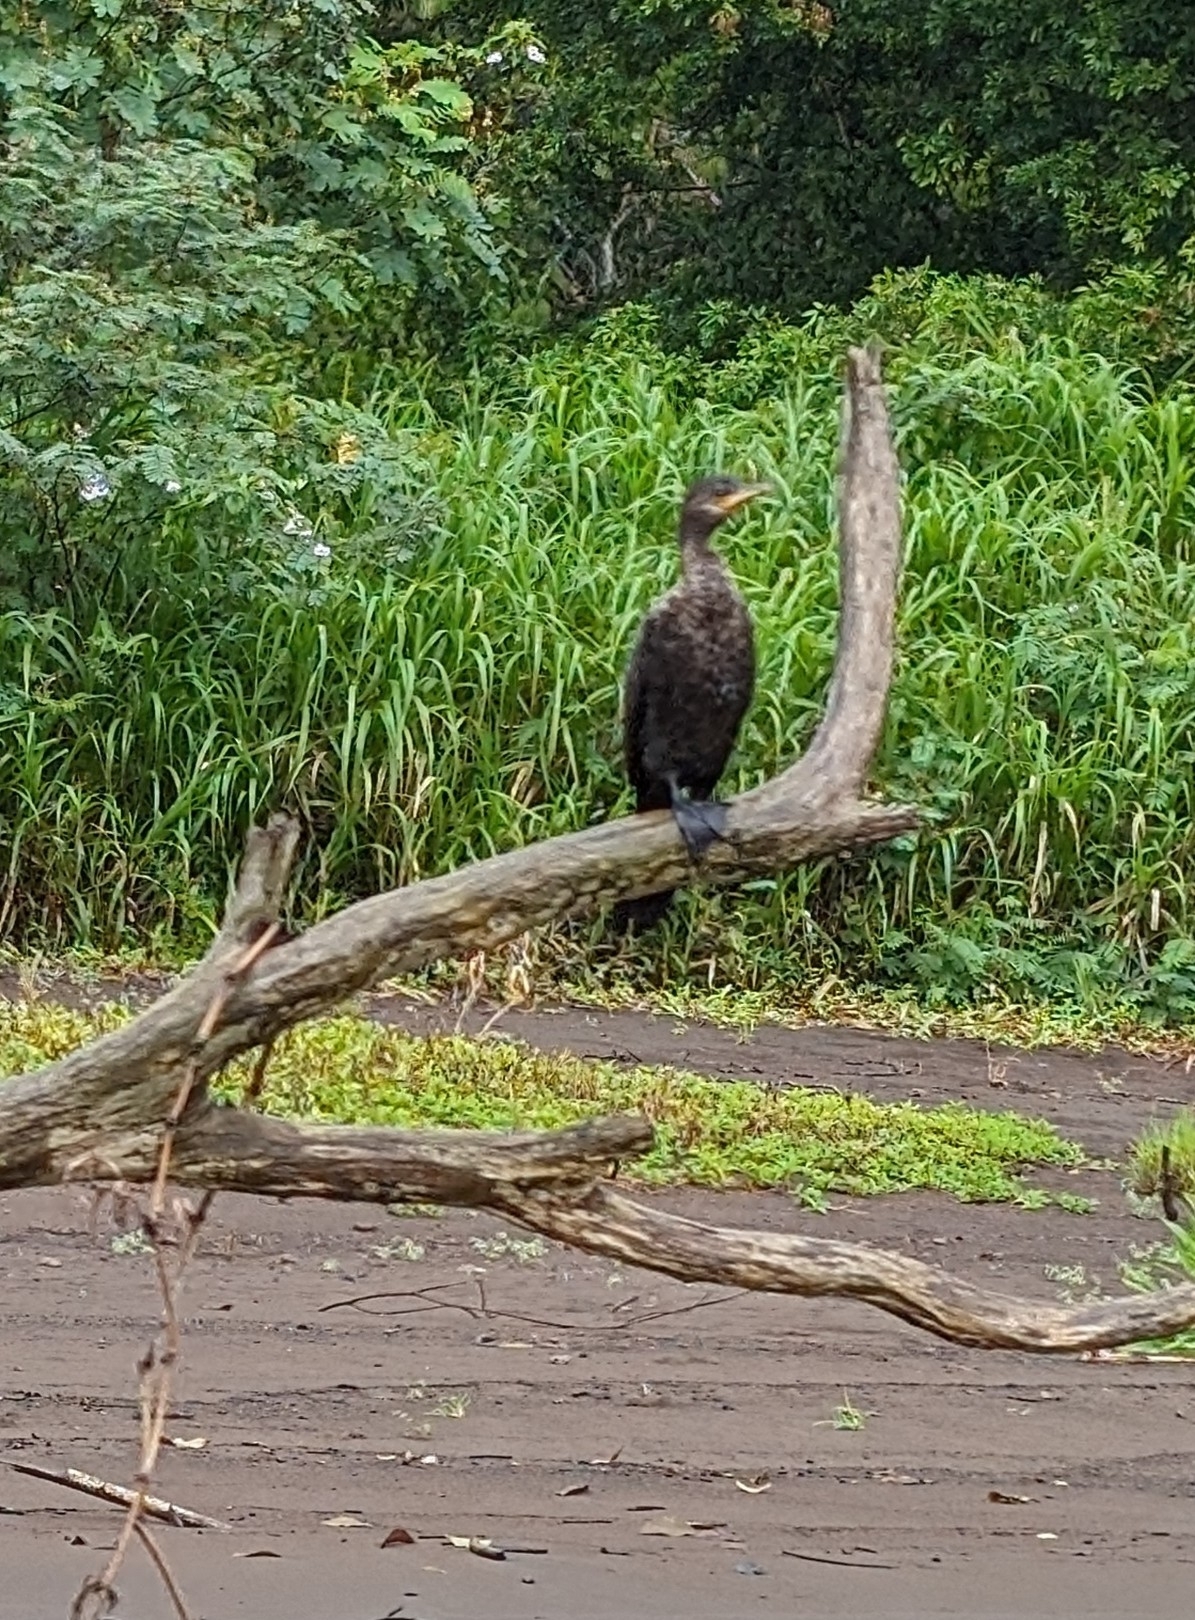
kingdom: Animalia
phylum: Chordata
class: Aves
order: Suliformes
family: Phalacrocoracidae
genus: Phalacrocorax
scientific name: Phalacrocorax brasilianus
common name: Neotropic cormorant
